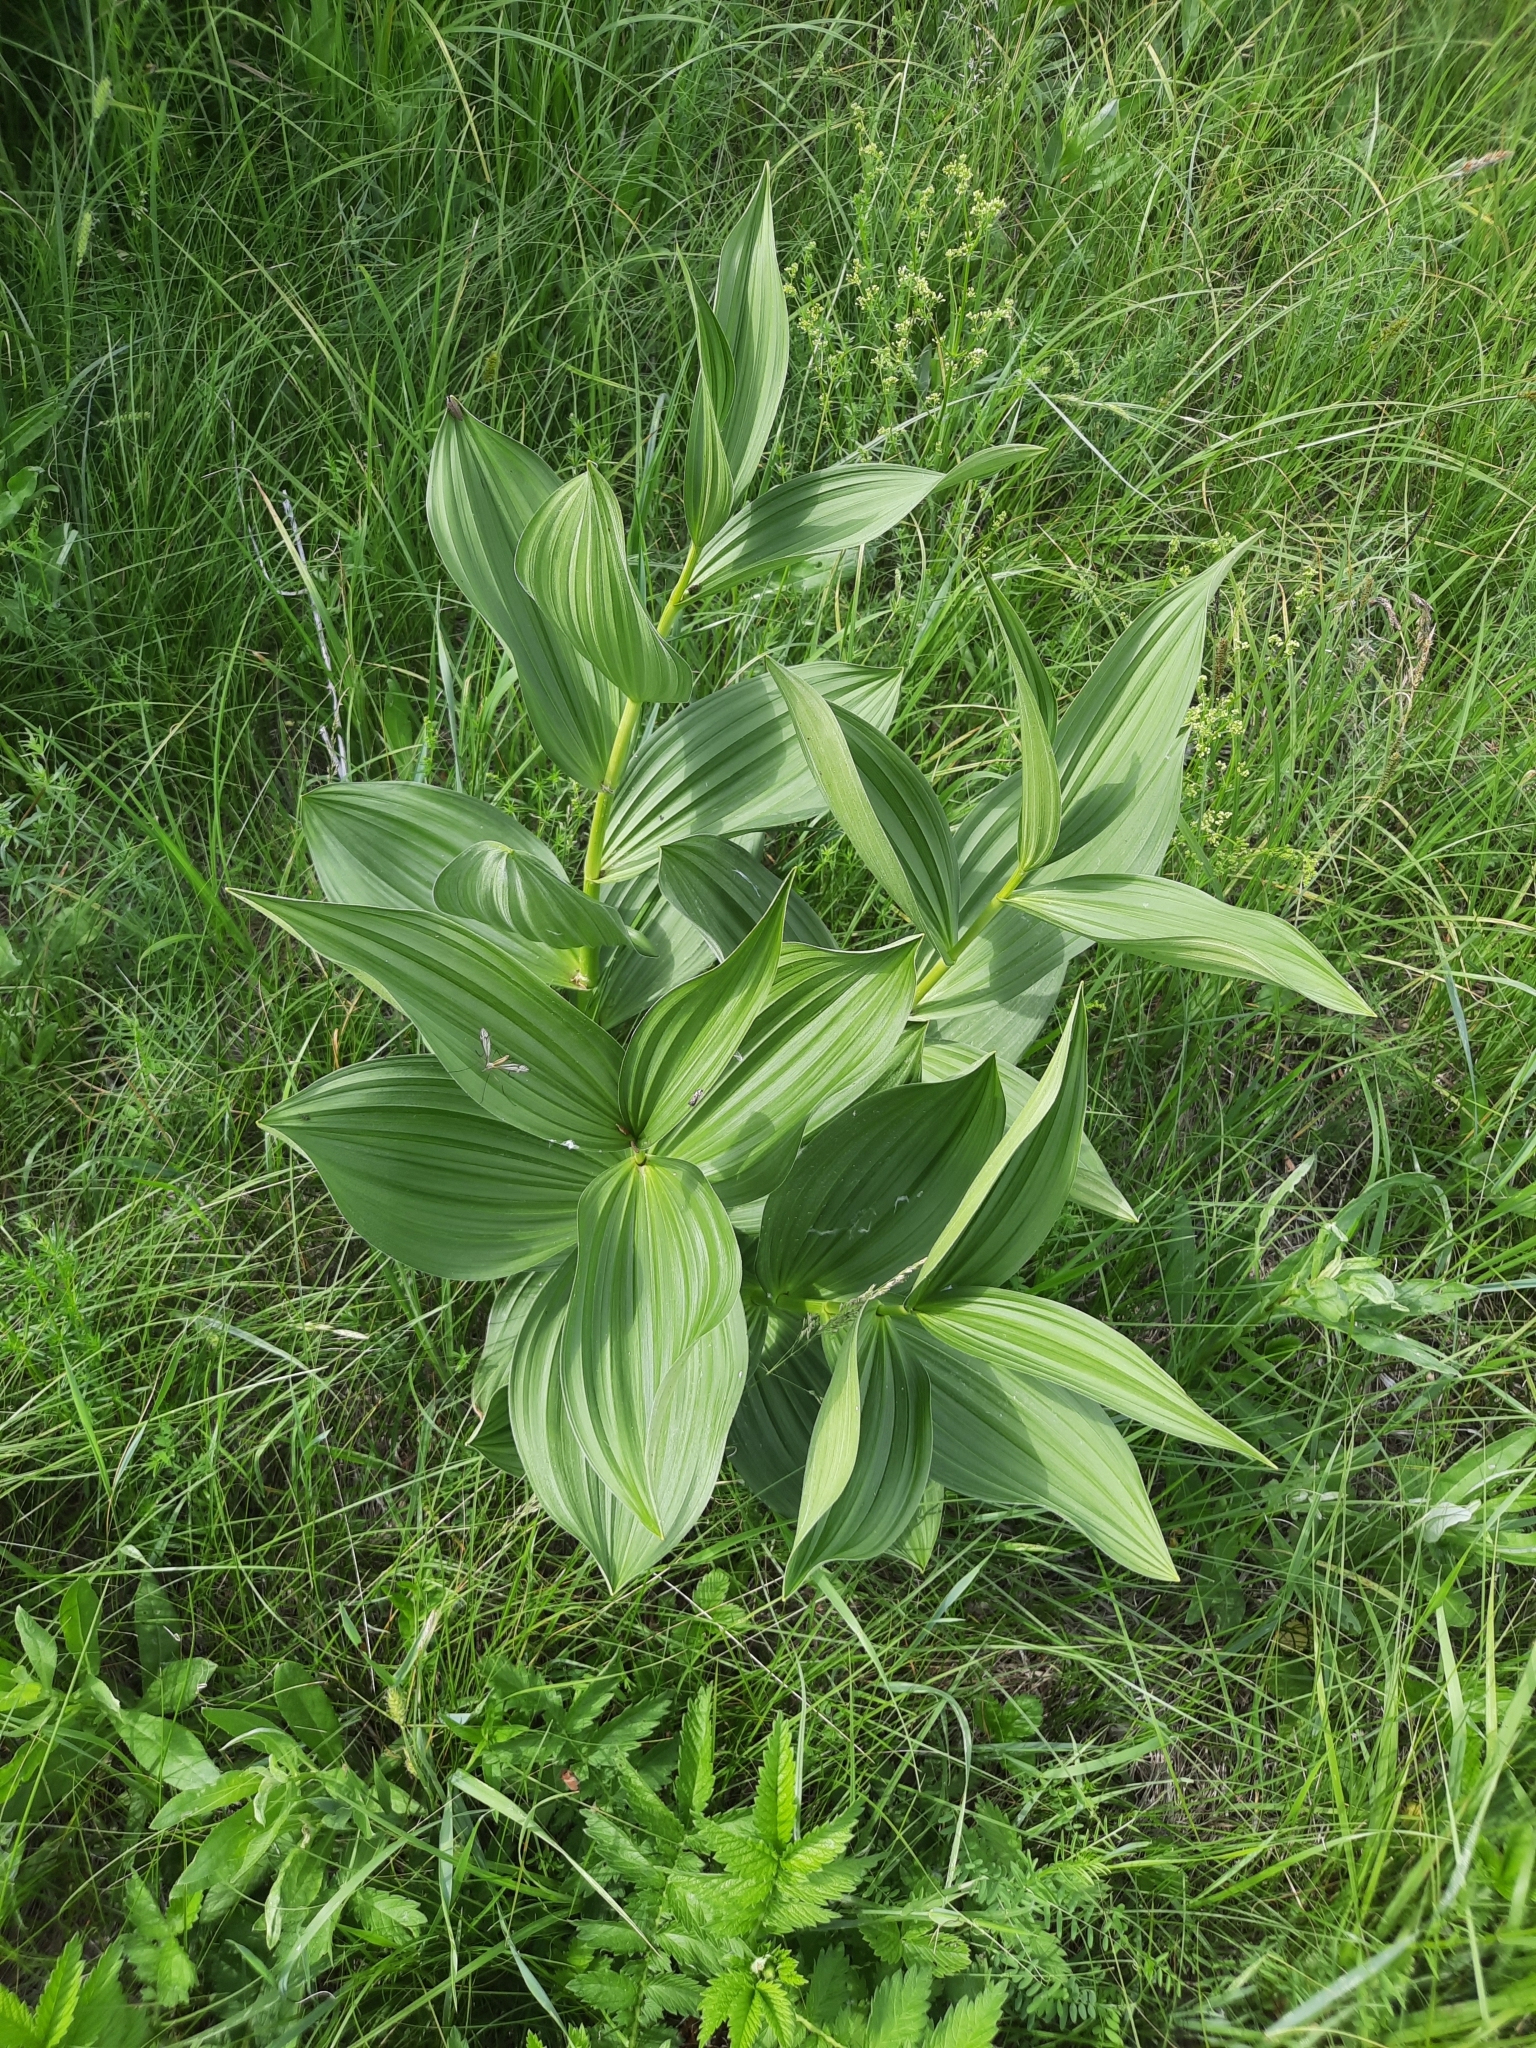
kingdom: Plantae
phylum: Tracheophyta
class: Liliopsida
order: Liliales
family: Melanthiaceae
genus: Veratrum
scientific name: Veratrum lobelianum
